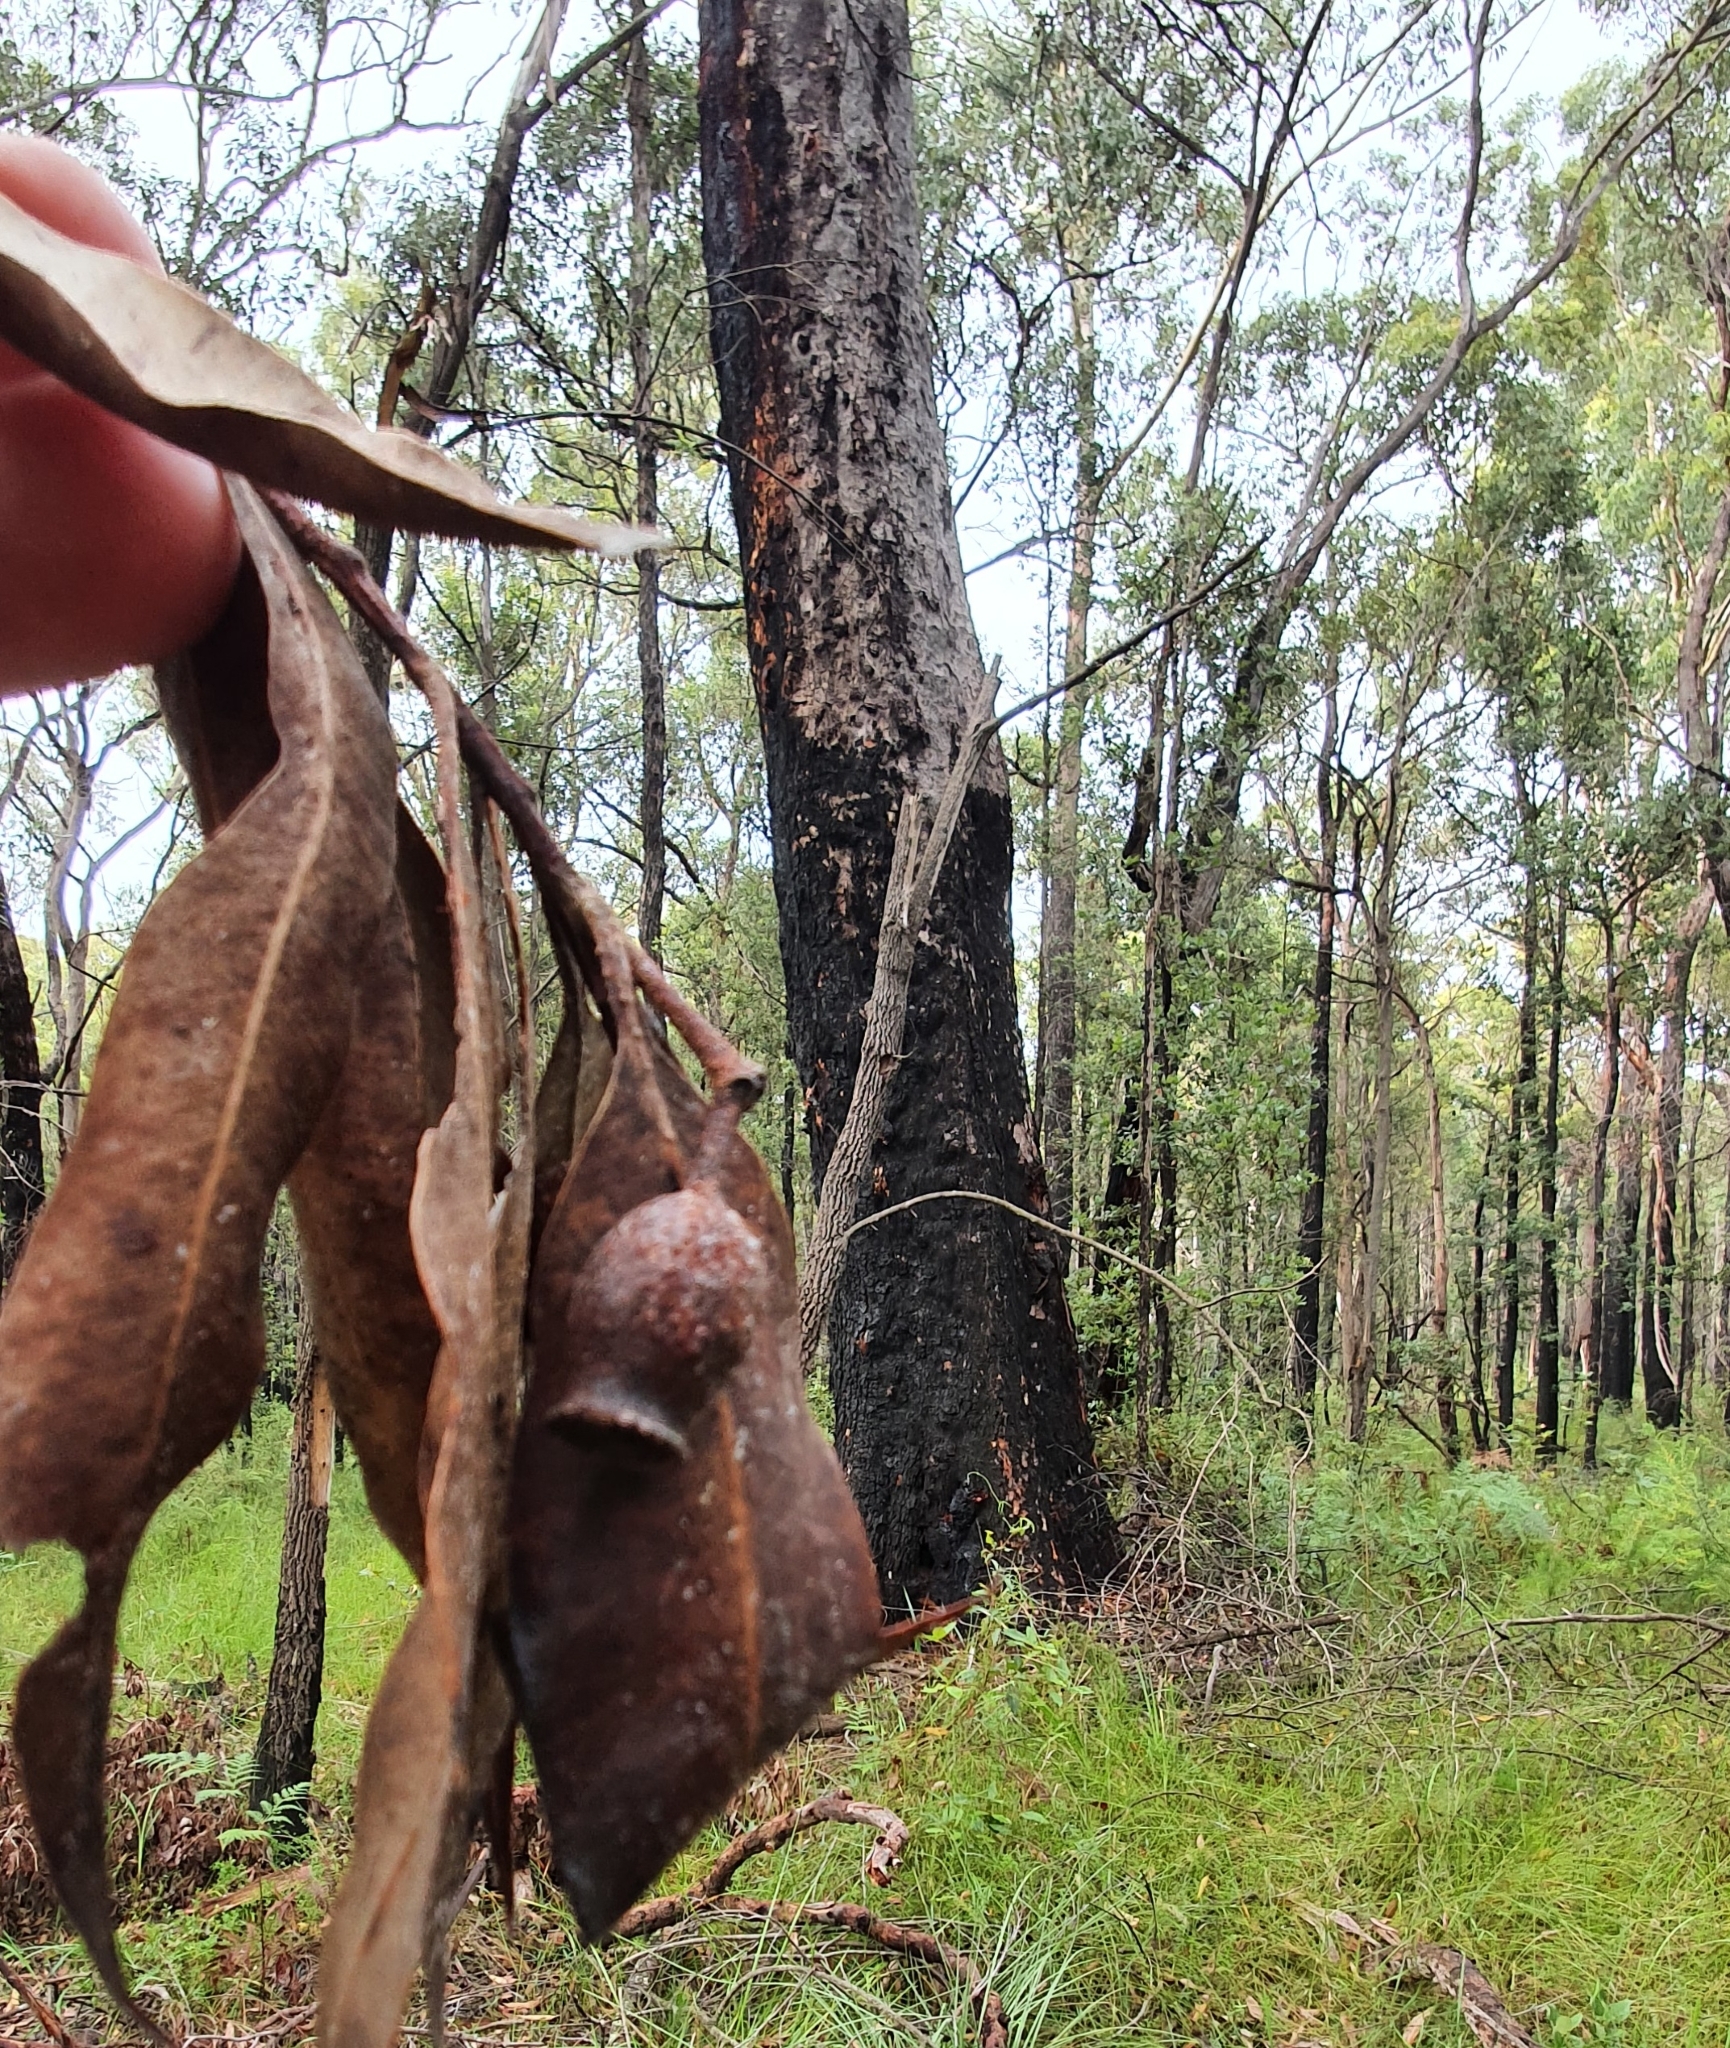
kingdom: Plantae
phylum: Tracheophyta
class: Magnoliopsida
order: Myrtales
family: Myrtaceae
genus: Corymbia
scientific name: Corymbia gummifera
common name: Red bloodwood
